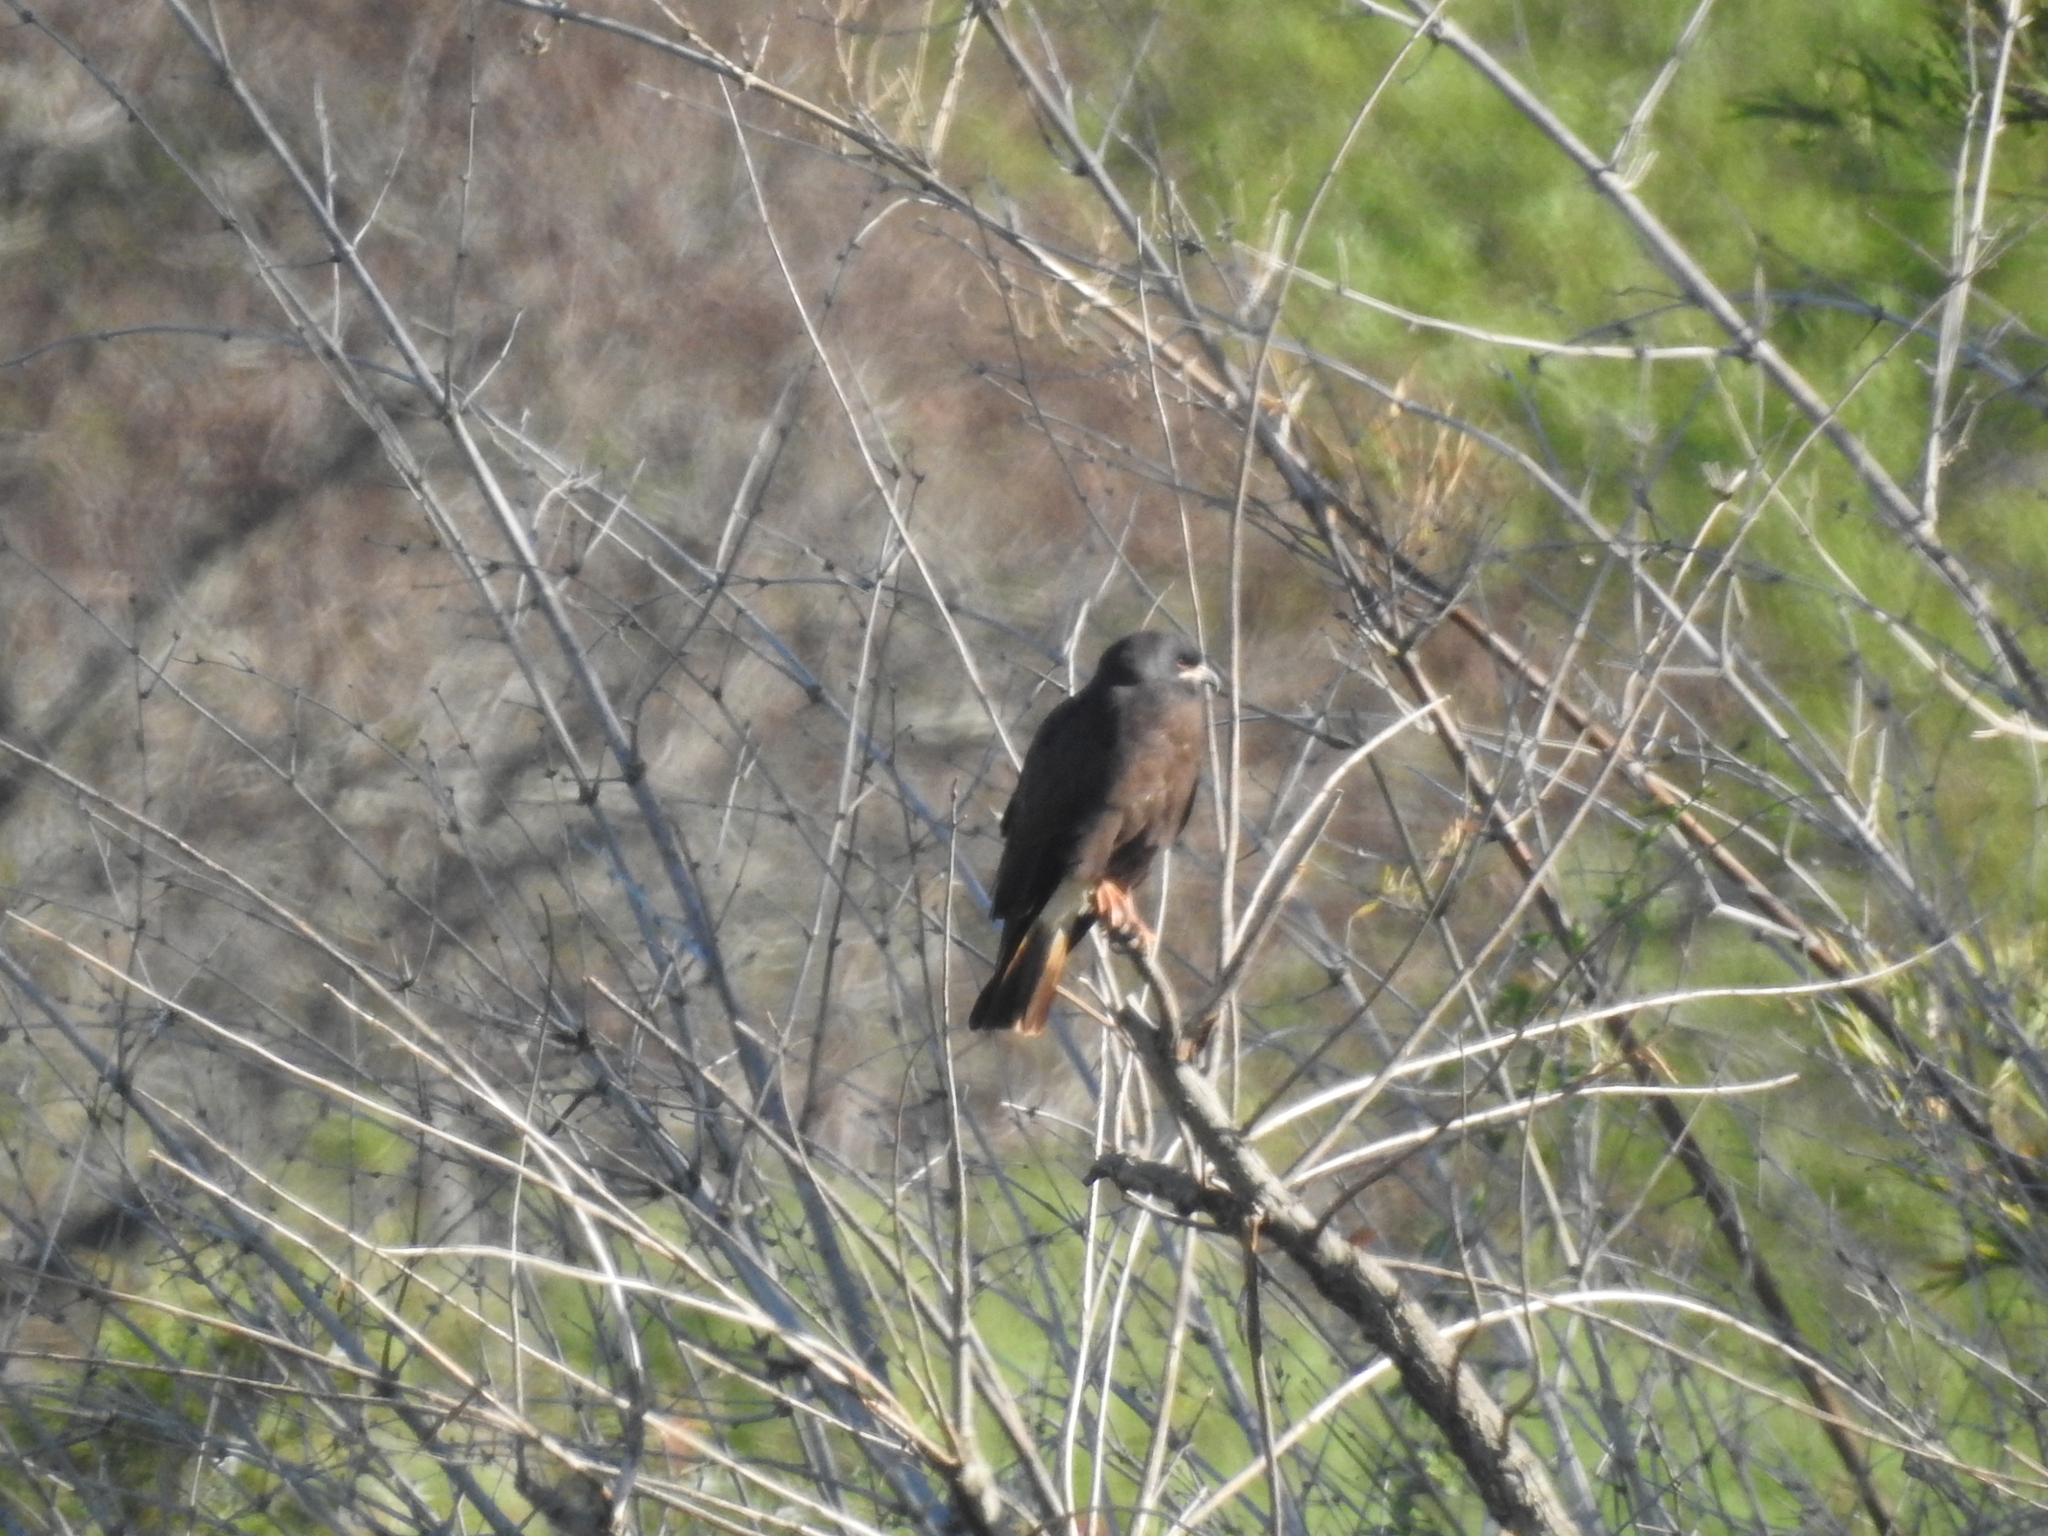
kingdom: Animalia
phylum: Chordata
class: Aves
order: Accipitriformes
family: Accipitridae
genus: Rostrhamus
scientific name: Rostrhamus sociabilis
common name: Snail kite
